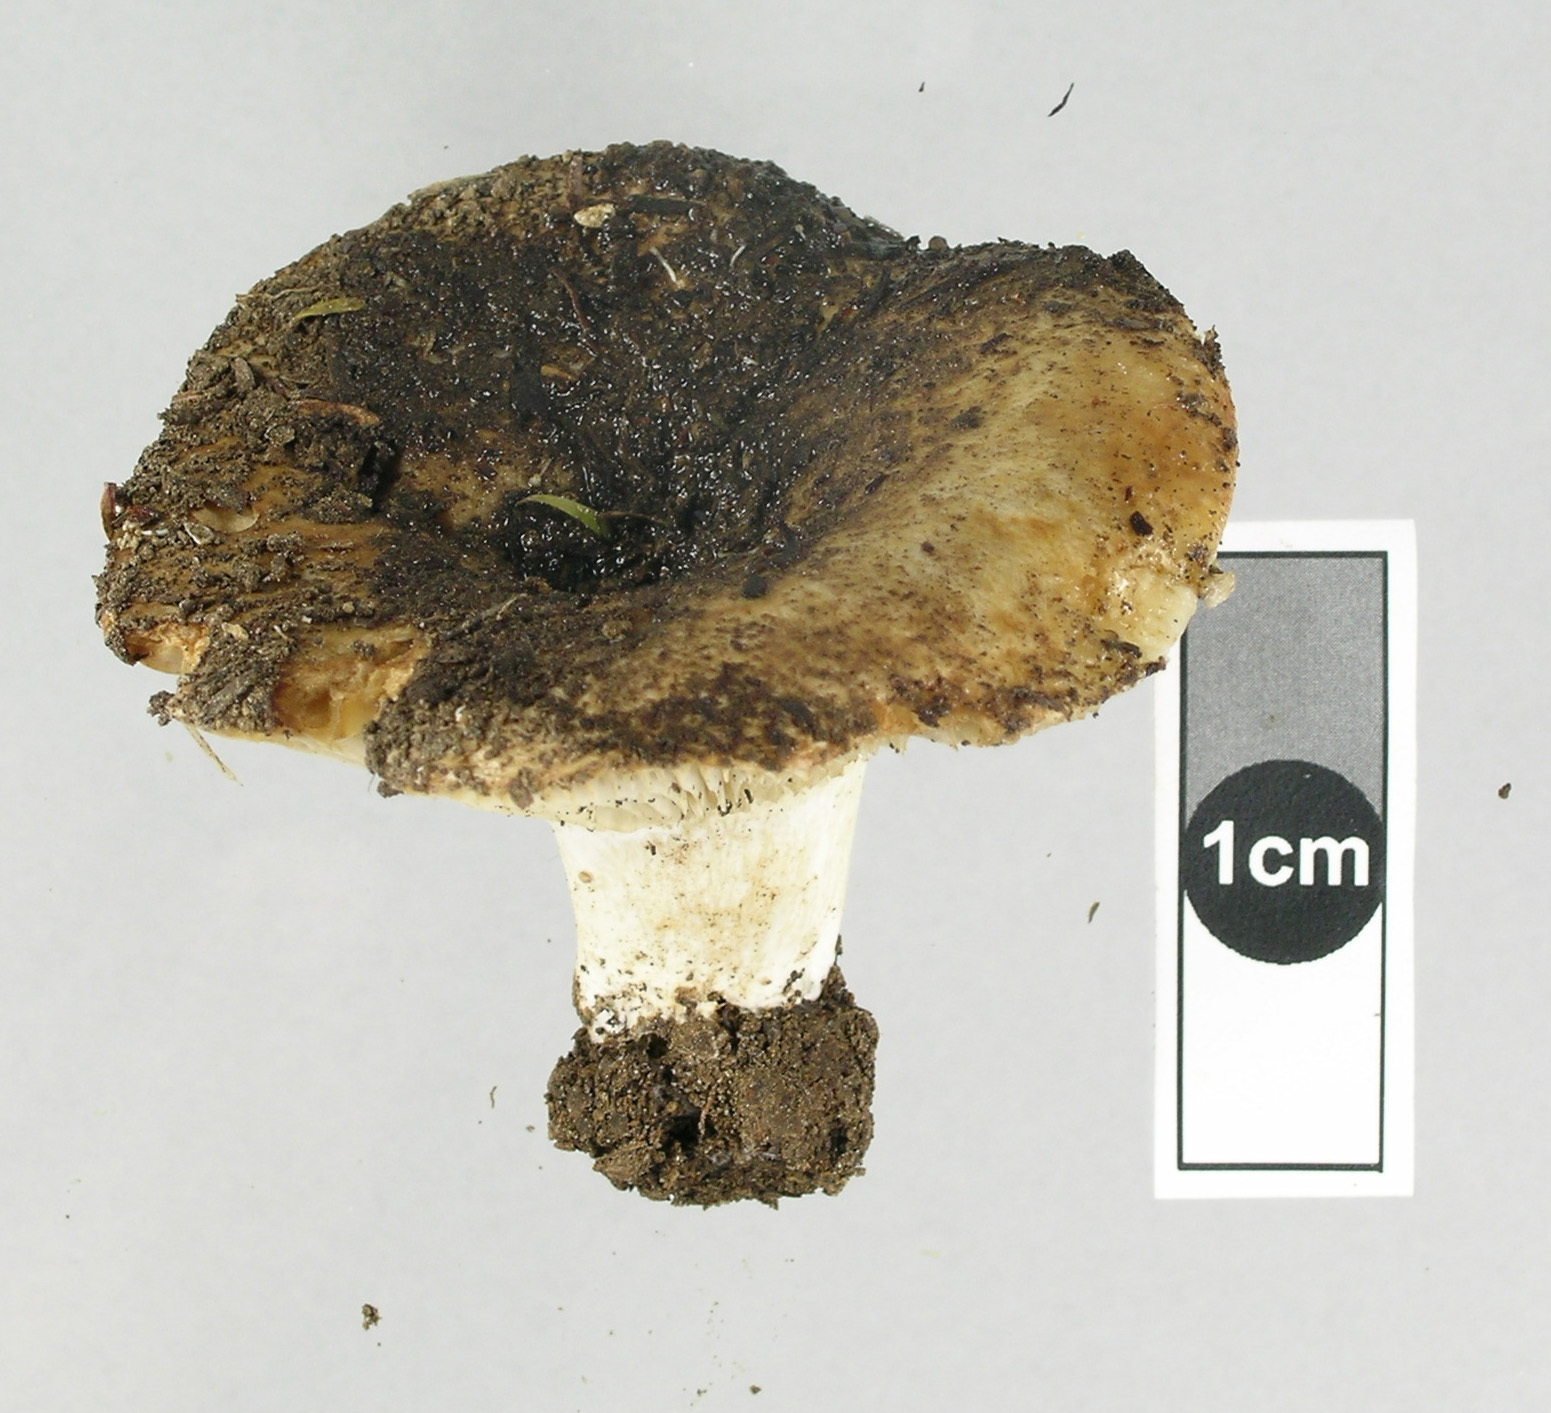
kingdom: Fungi
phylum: Basidiomycota
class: Agaricomycetes
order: Russulales
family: Russulaceae
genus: Russula
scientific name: Russula allochroa
